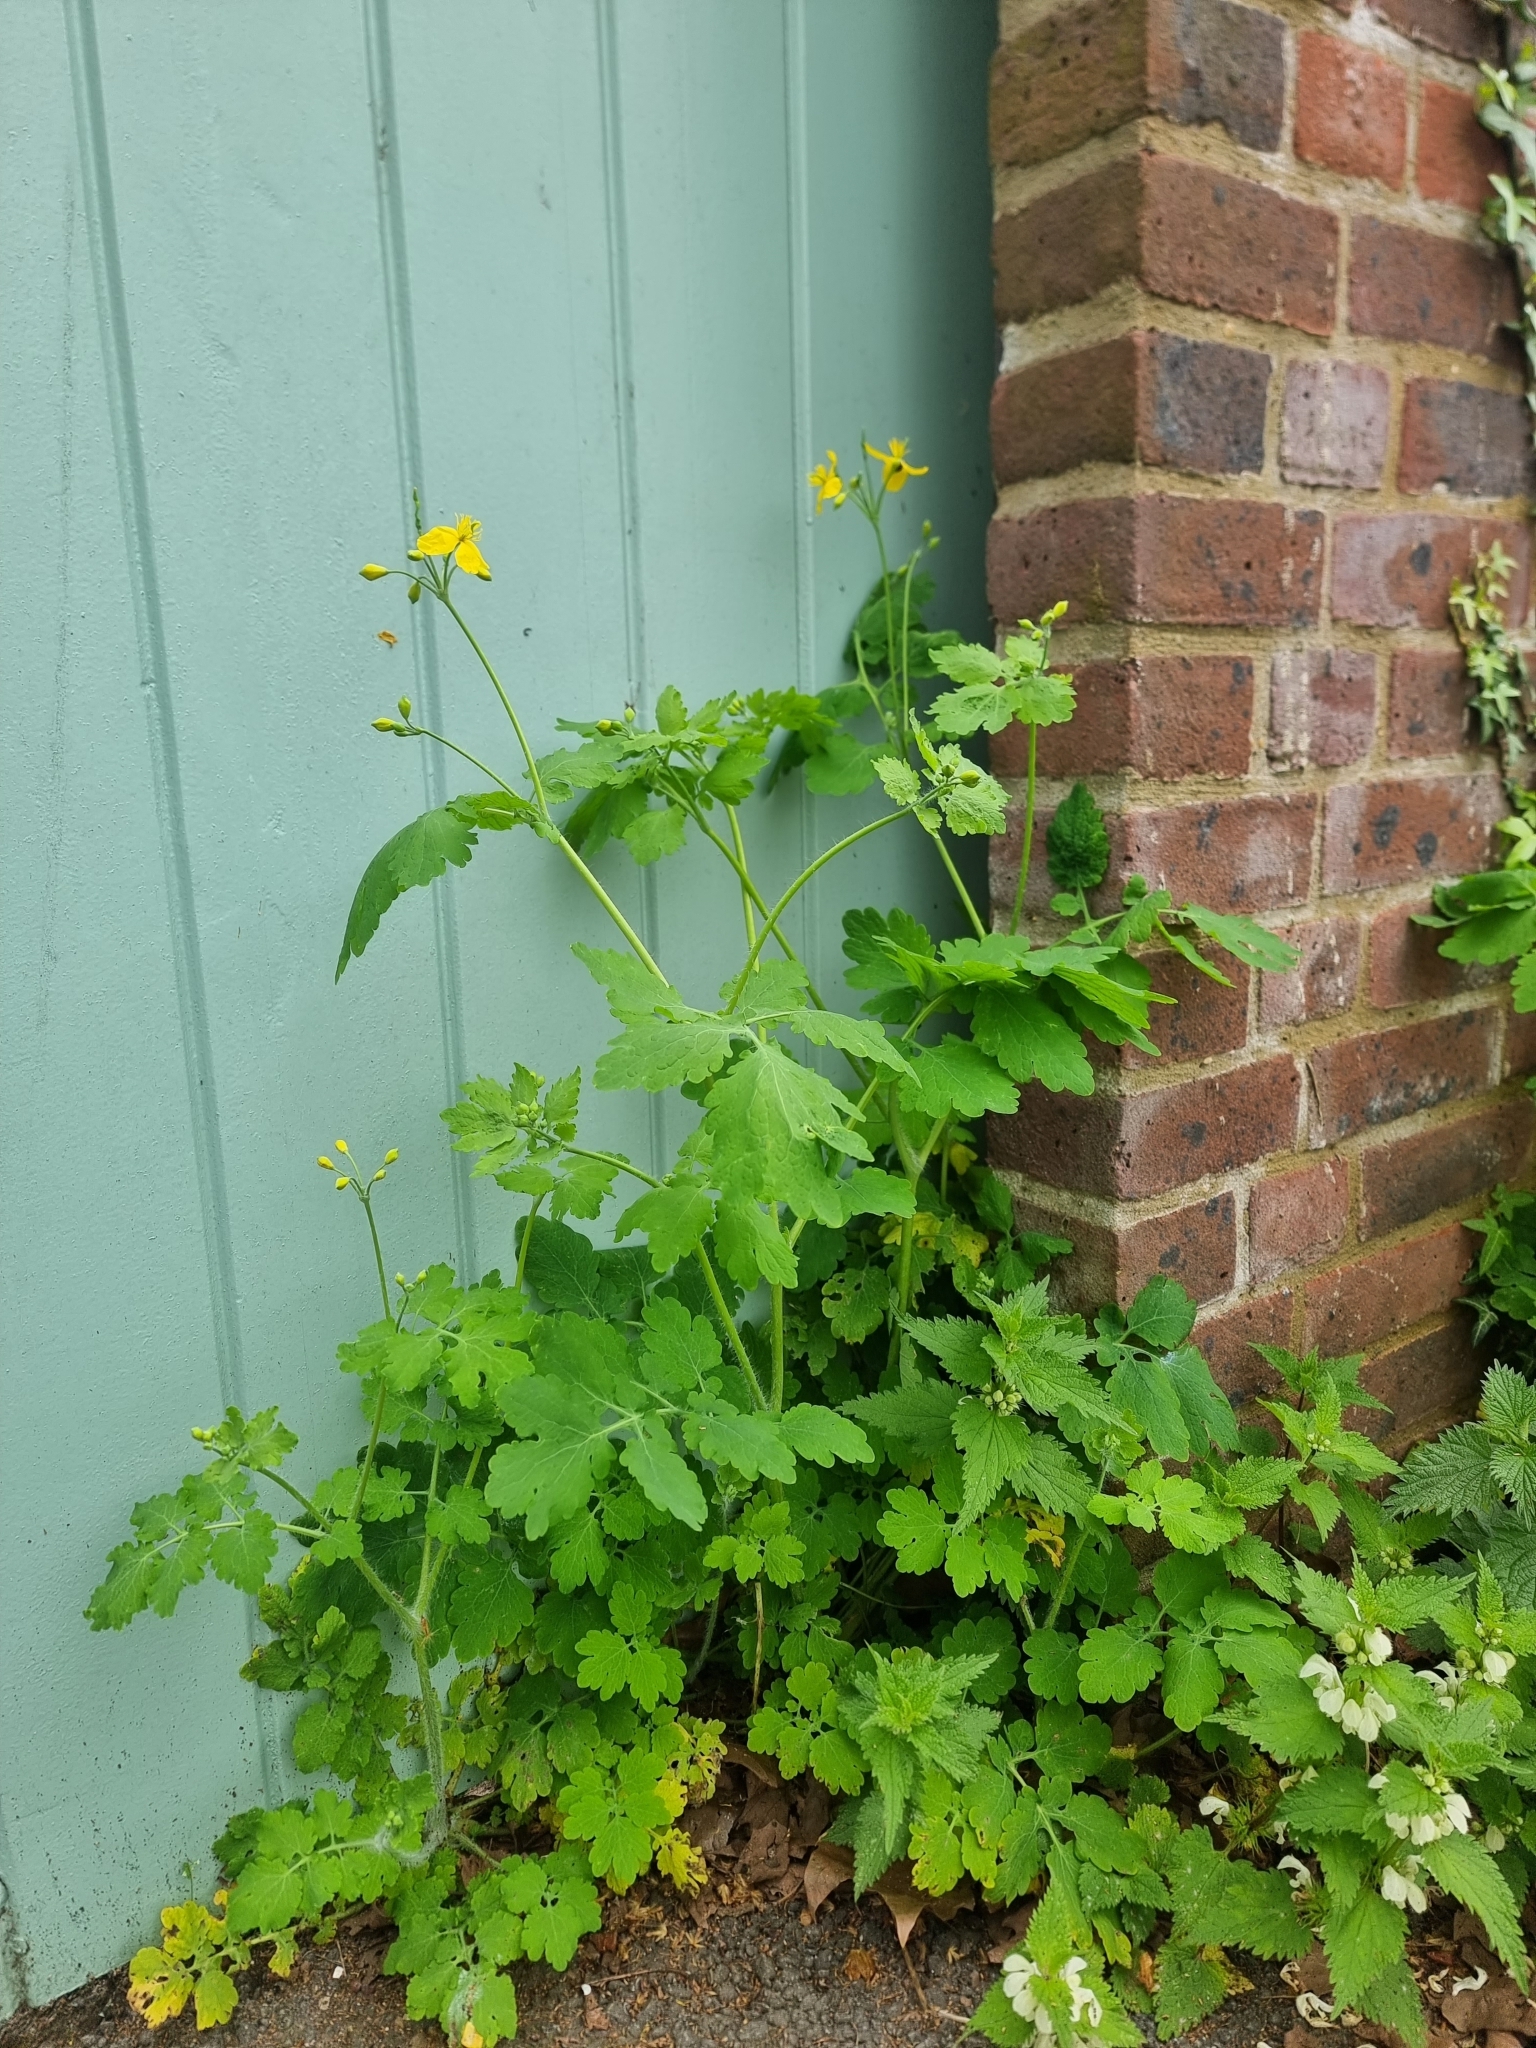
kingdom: Plantae
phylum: Tracheophyta
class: Magnoliopsida
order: Ranunculales
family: Papaveraceae
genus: Chelidonium
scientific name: Chelidonium majus
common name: Greater celandine
